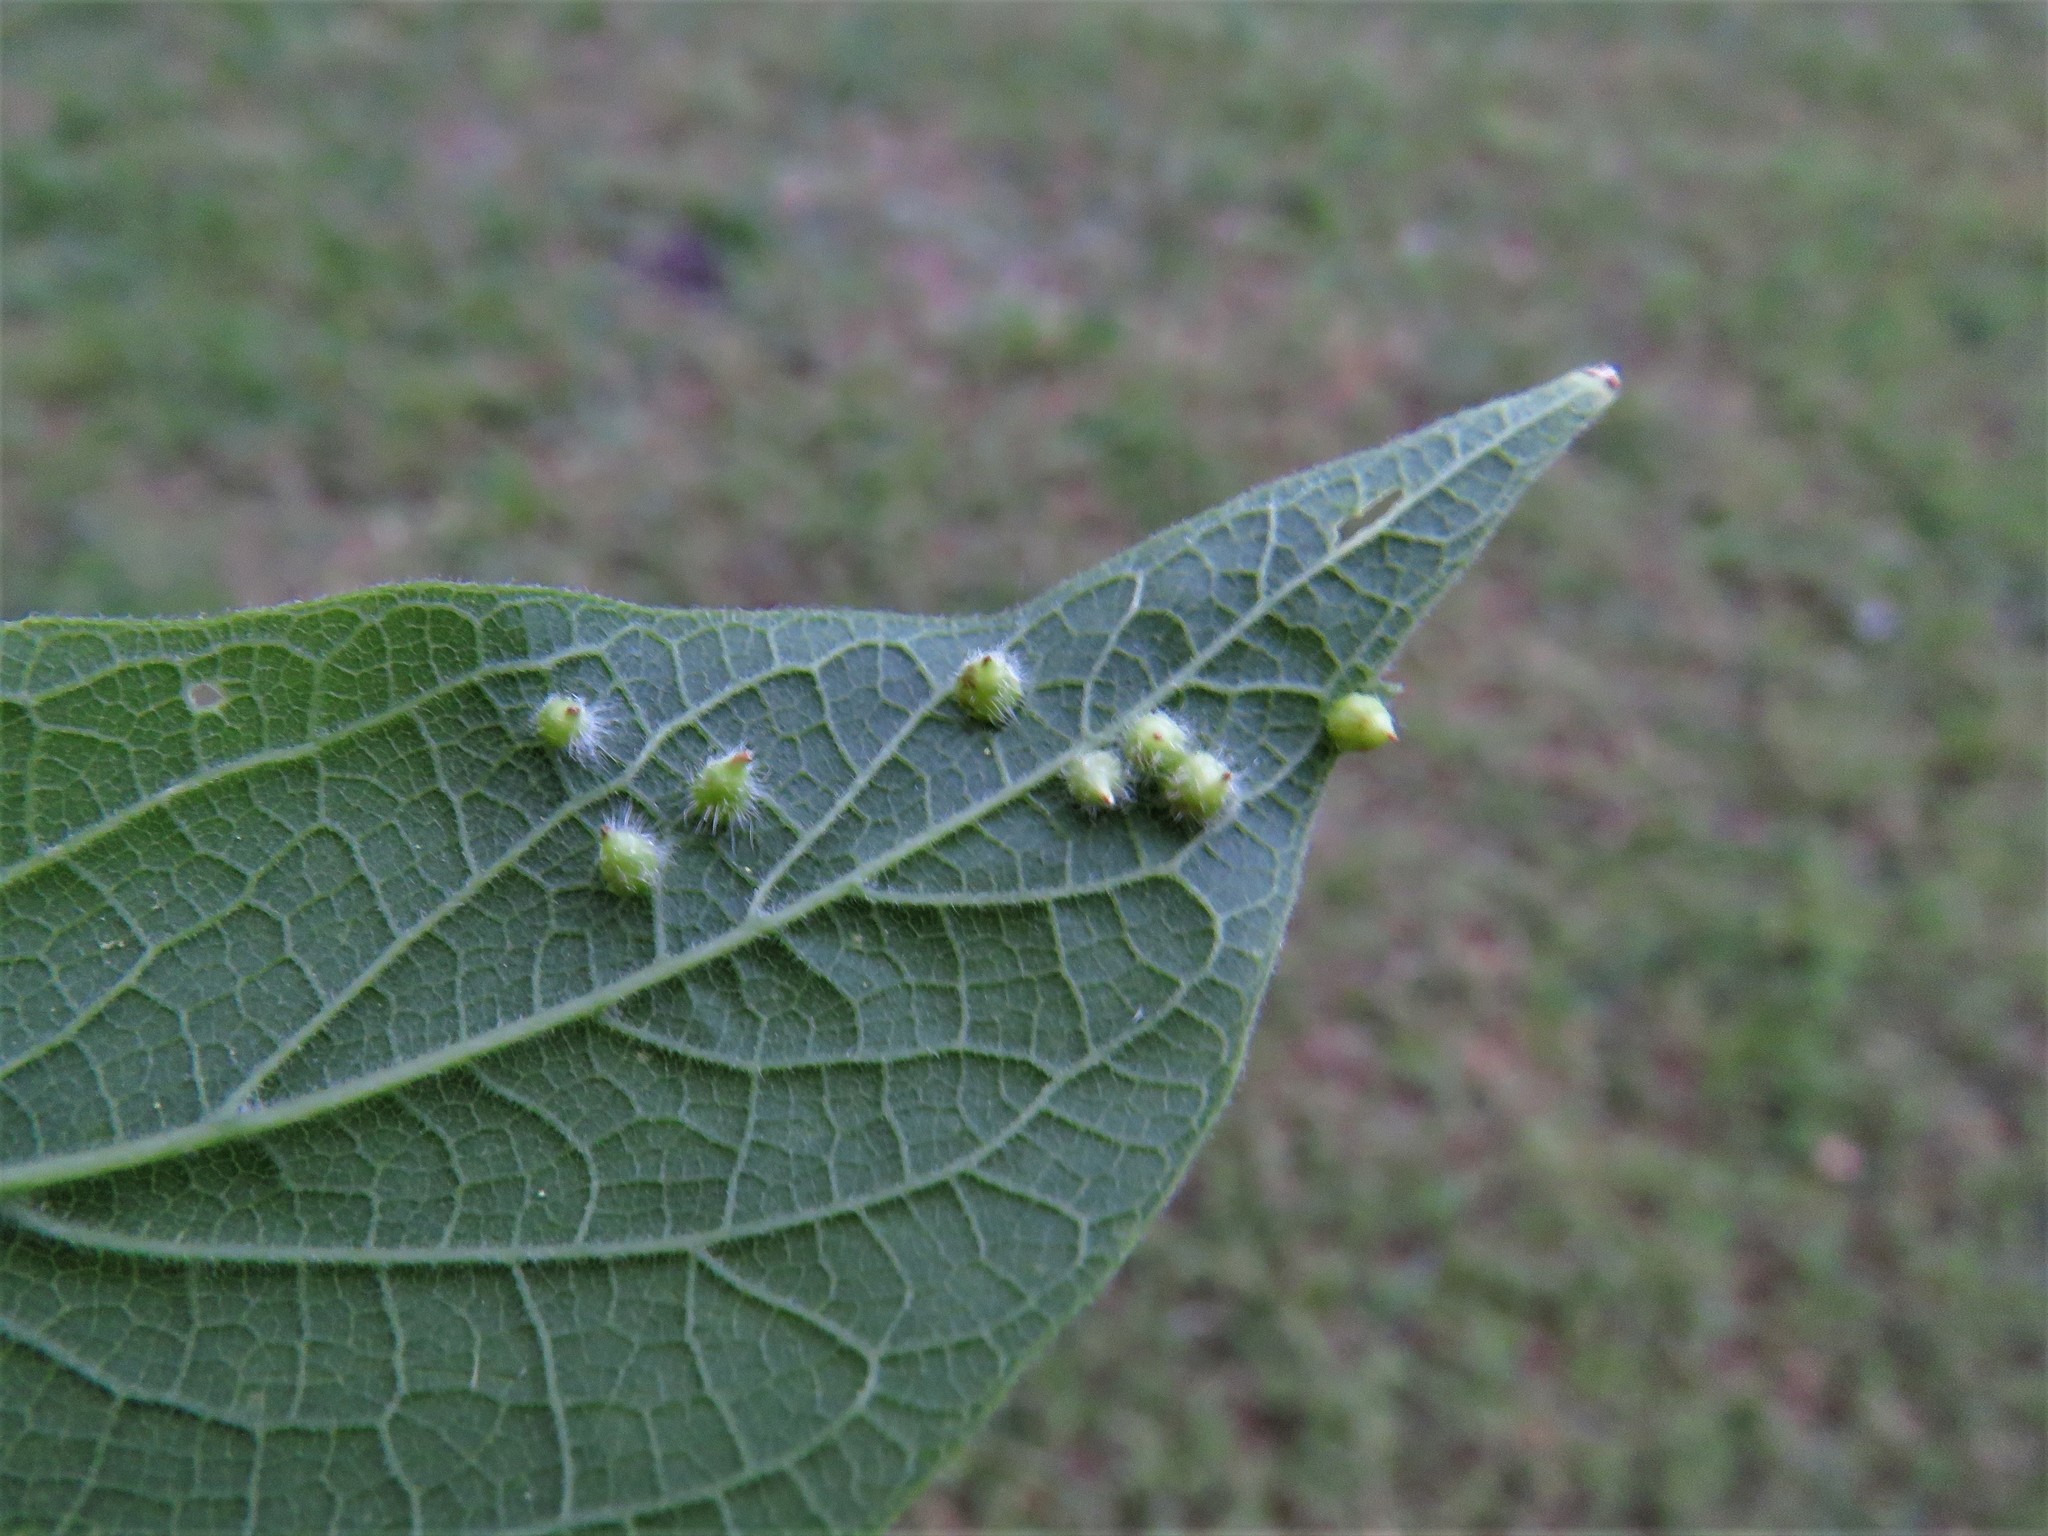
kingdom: Animalia
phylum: Arthropoda
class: Insecta
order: Diptera
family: Cecidomyiidae
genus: Celticecis
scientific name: Celticecis capsularis
